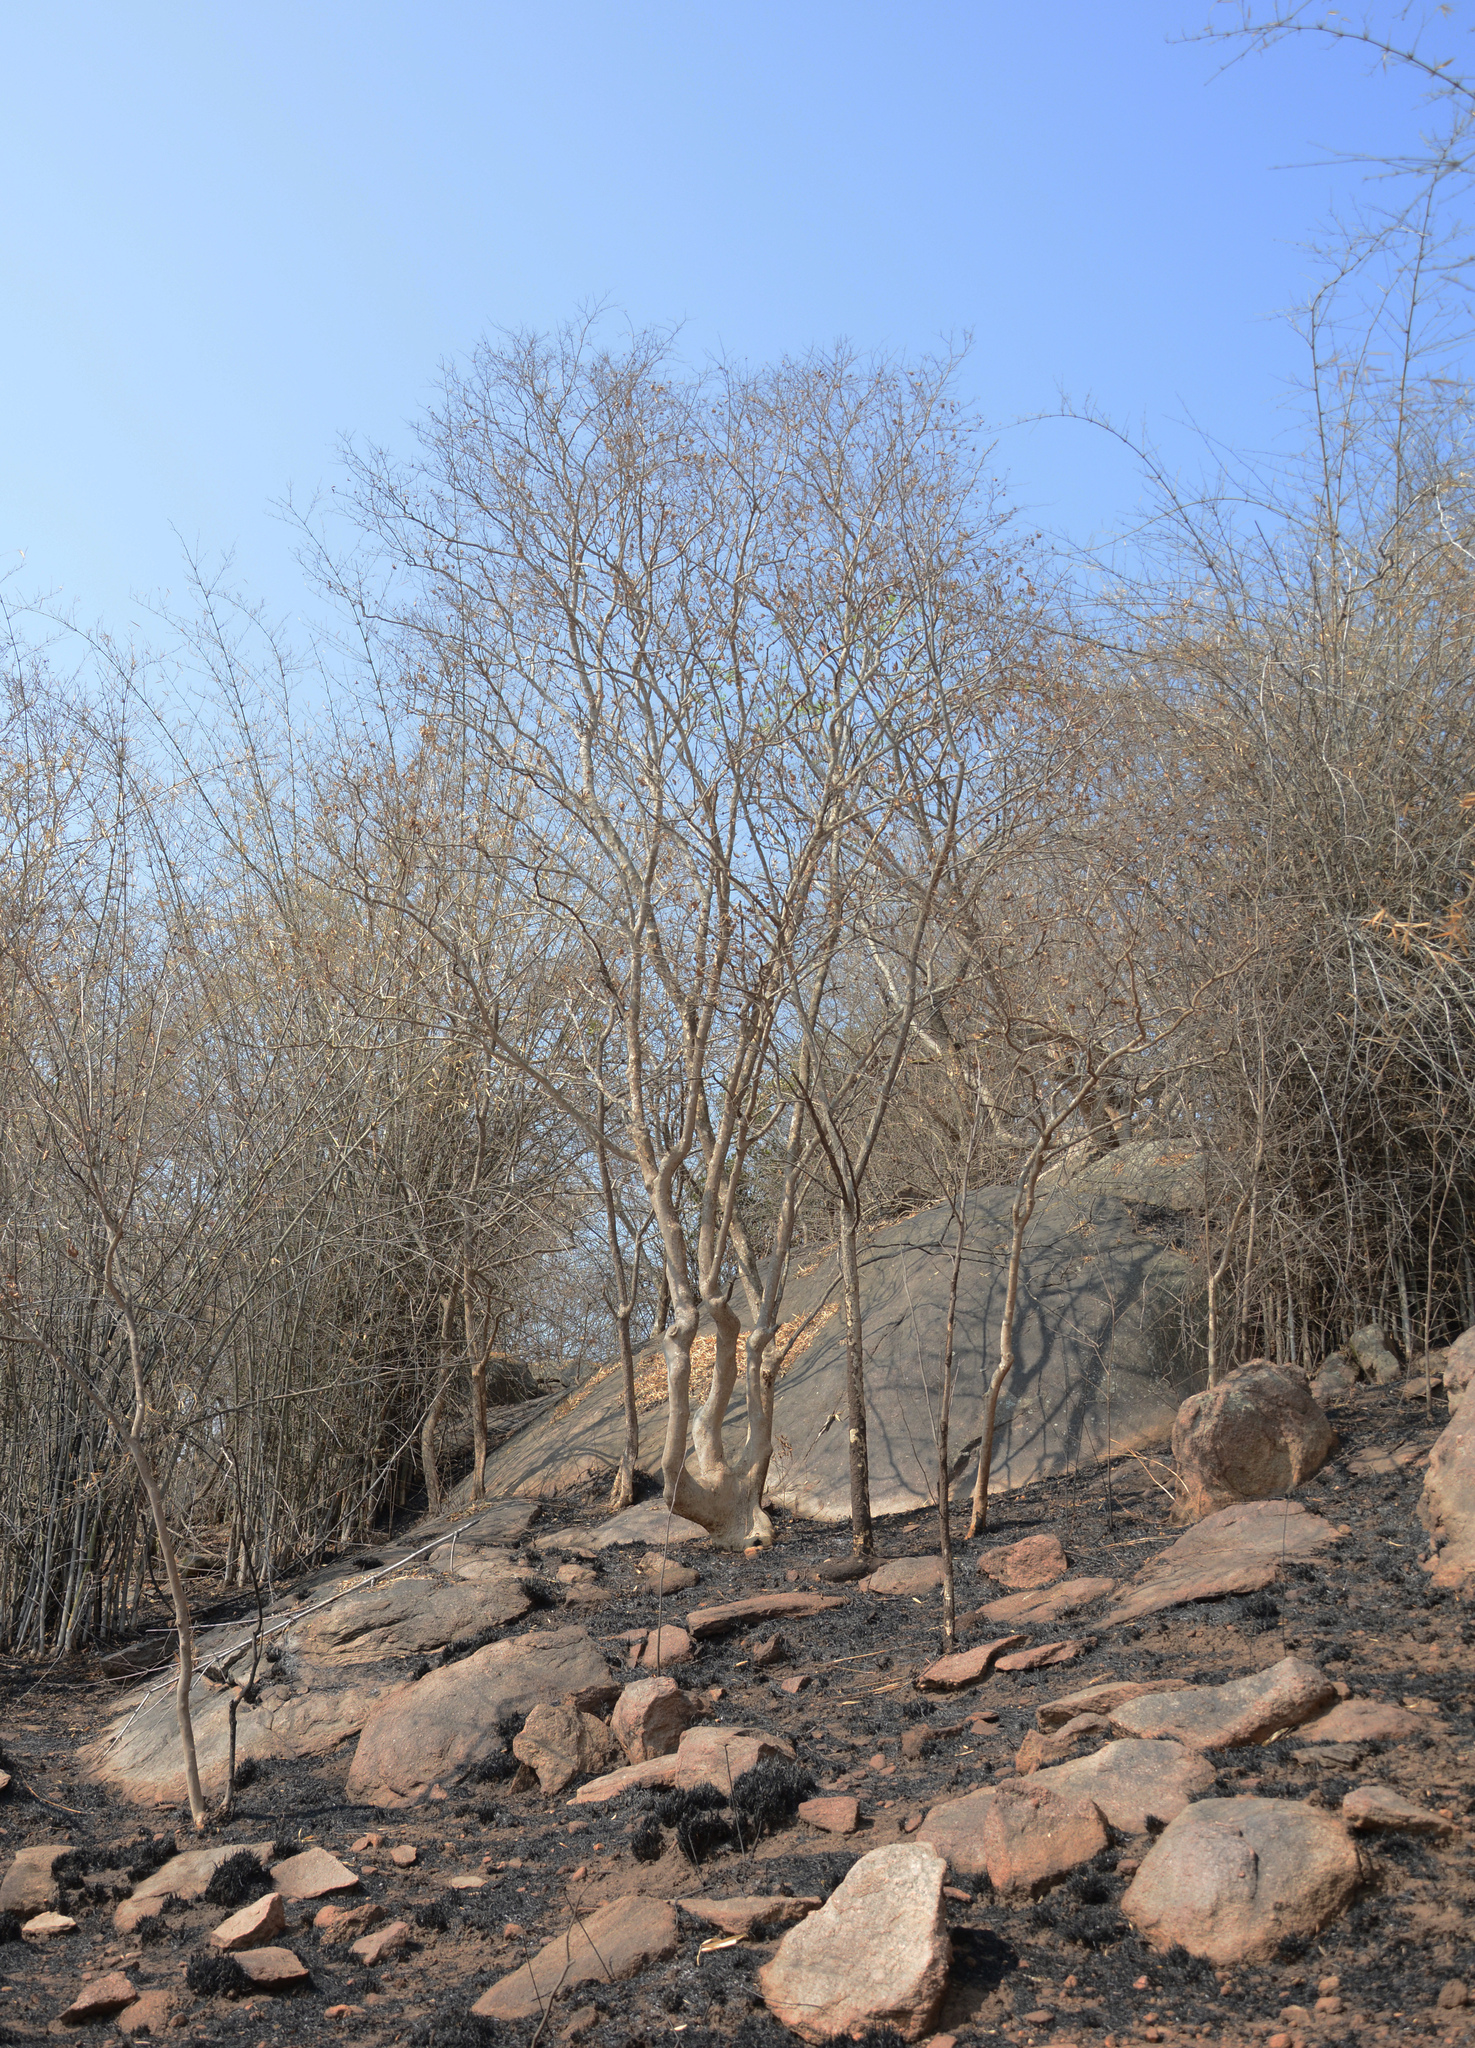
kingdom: Plantae
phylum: Tracheophyta
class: Magnoliopsida
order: Myrtales
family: Combretaceae
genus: Terminalia
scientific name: Terminalia latifolia
